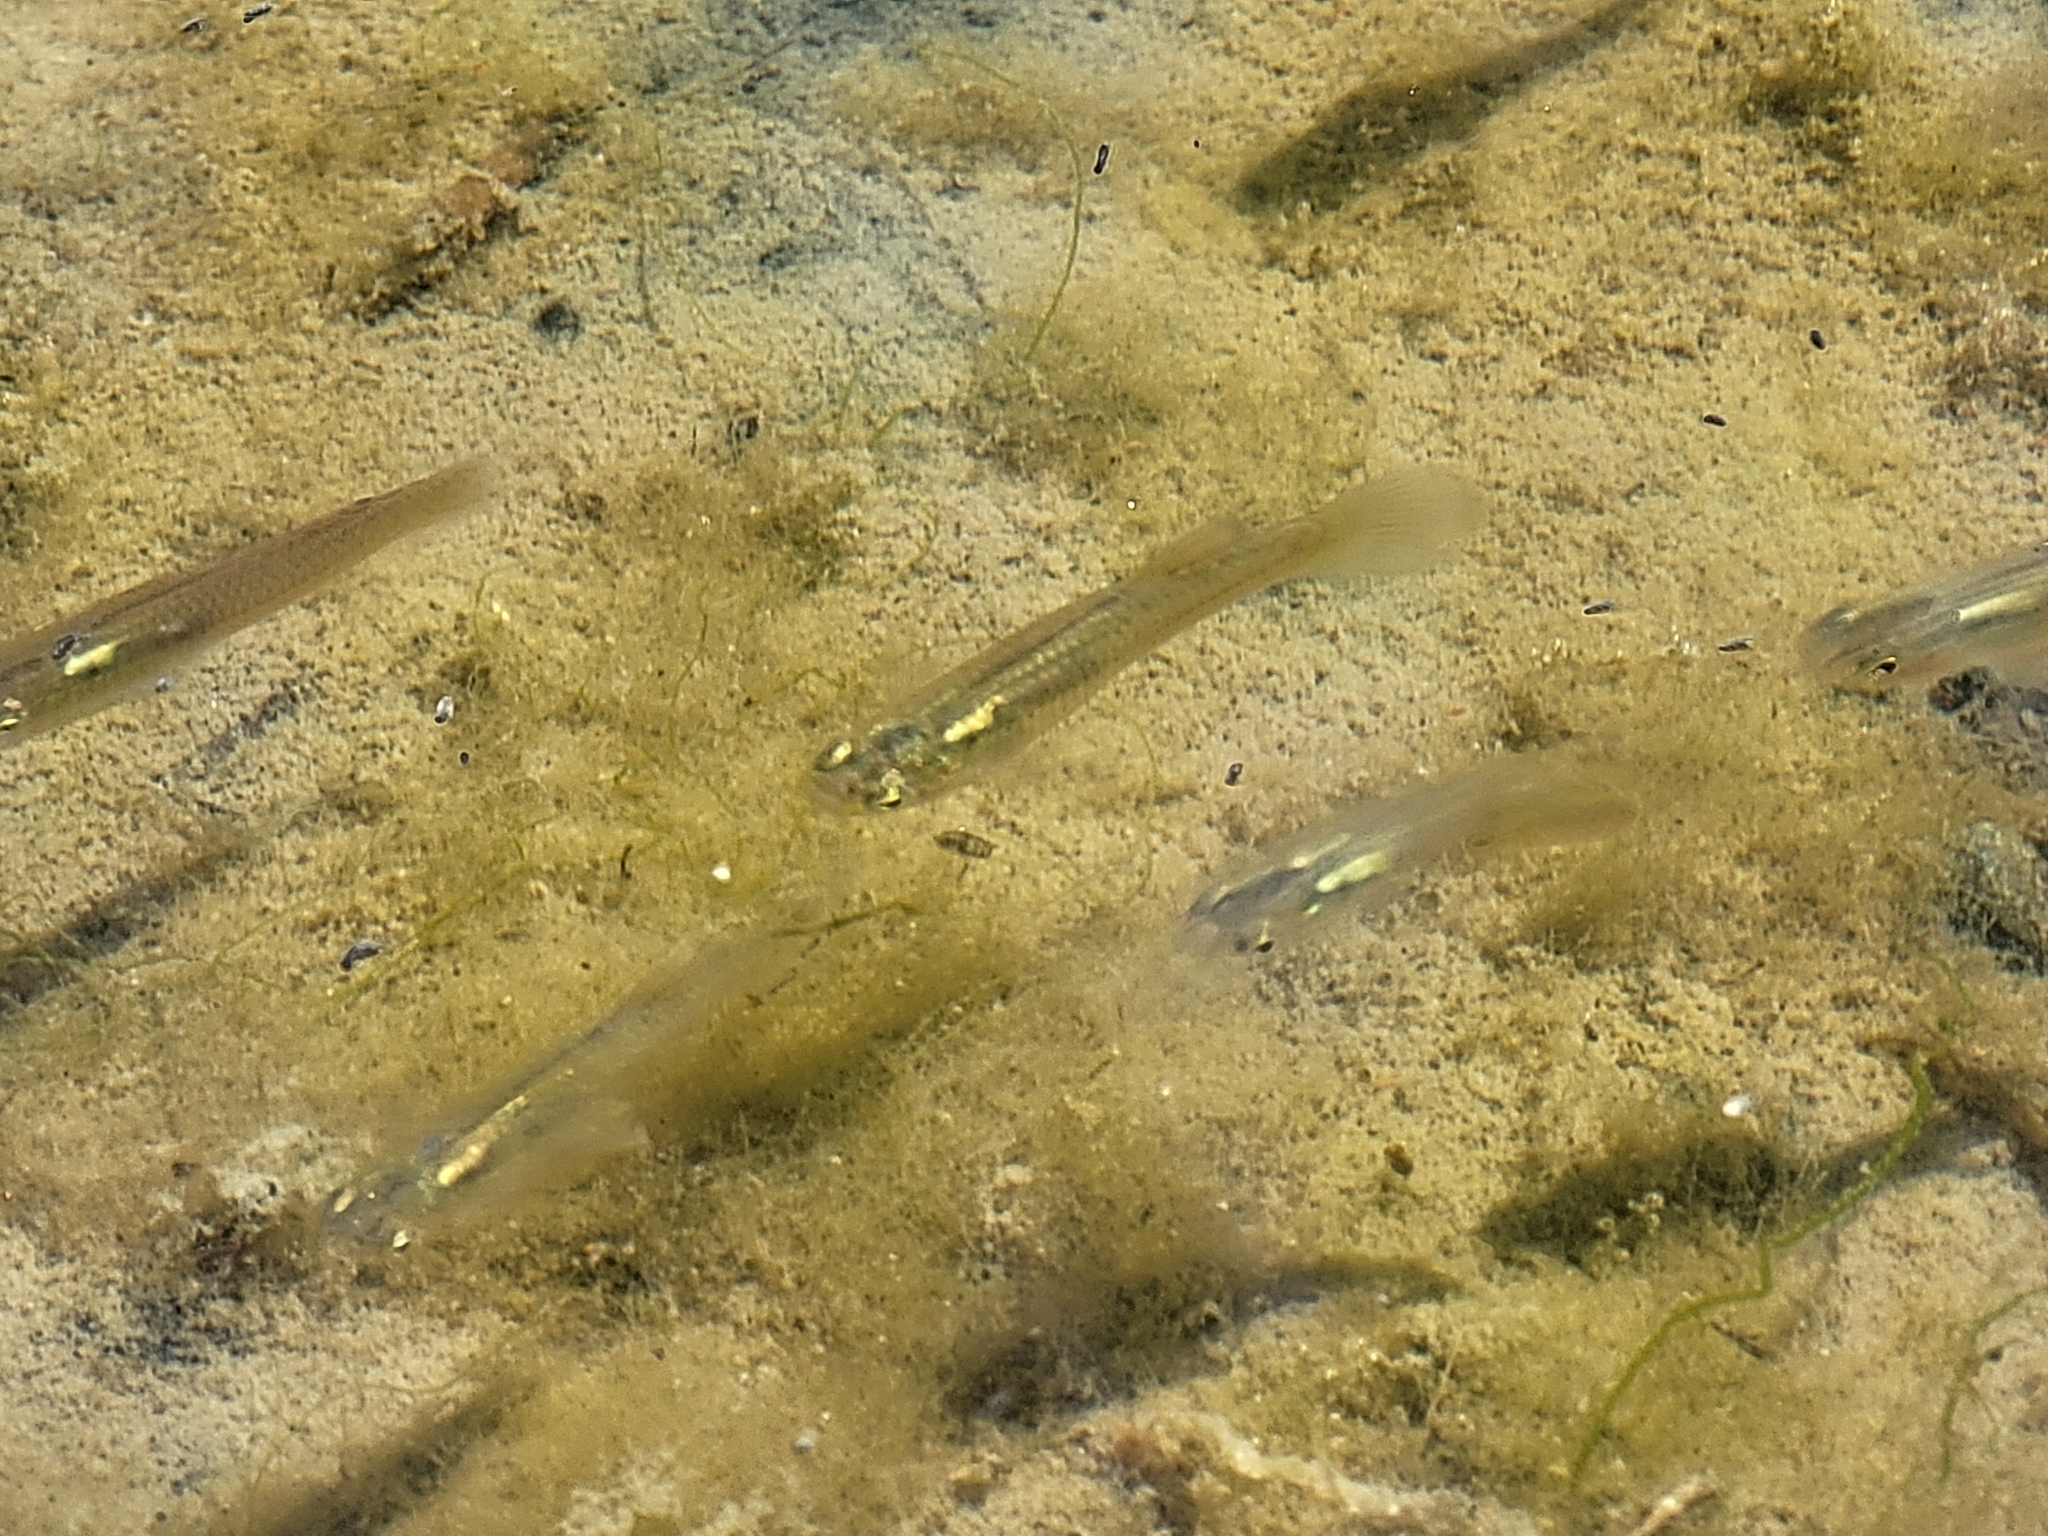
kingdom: Animalia
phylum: Chordata
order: Cyprinodontiformes
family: Poeciliidae
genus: Gambusia
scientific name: Gambusia affinis
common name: Mosquitofish
